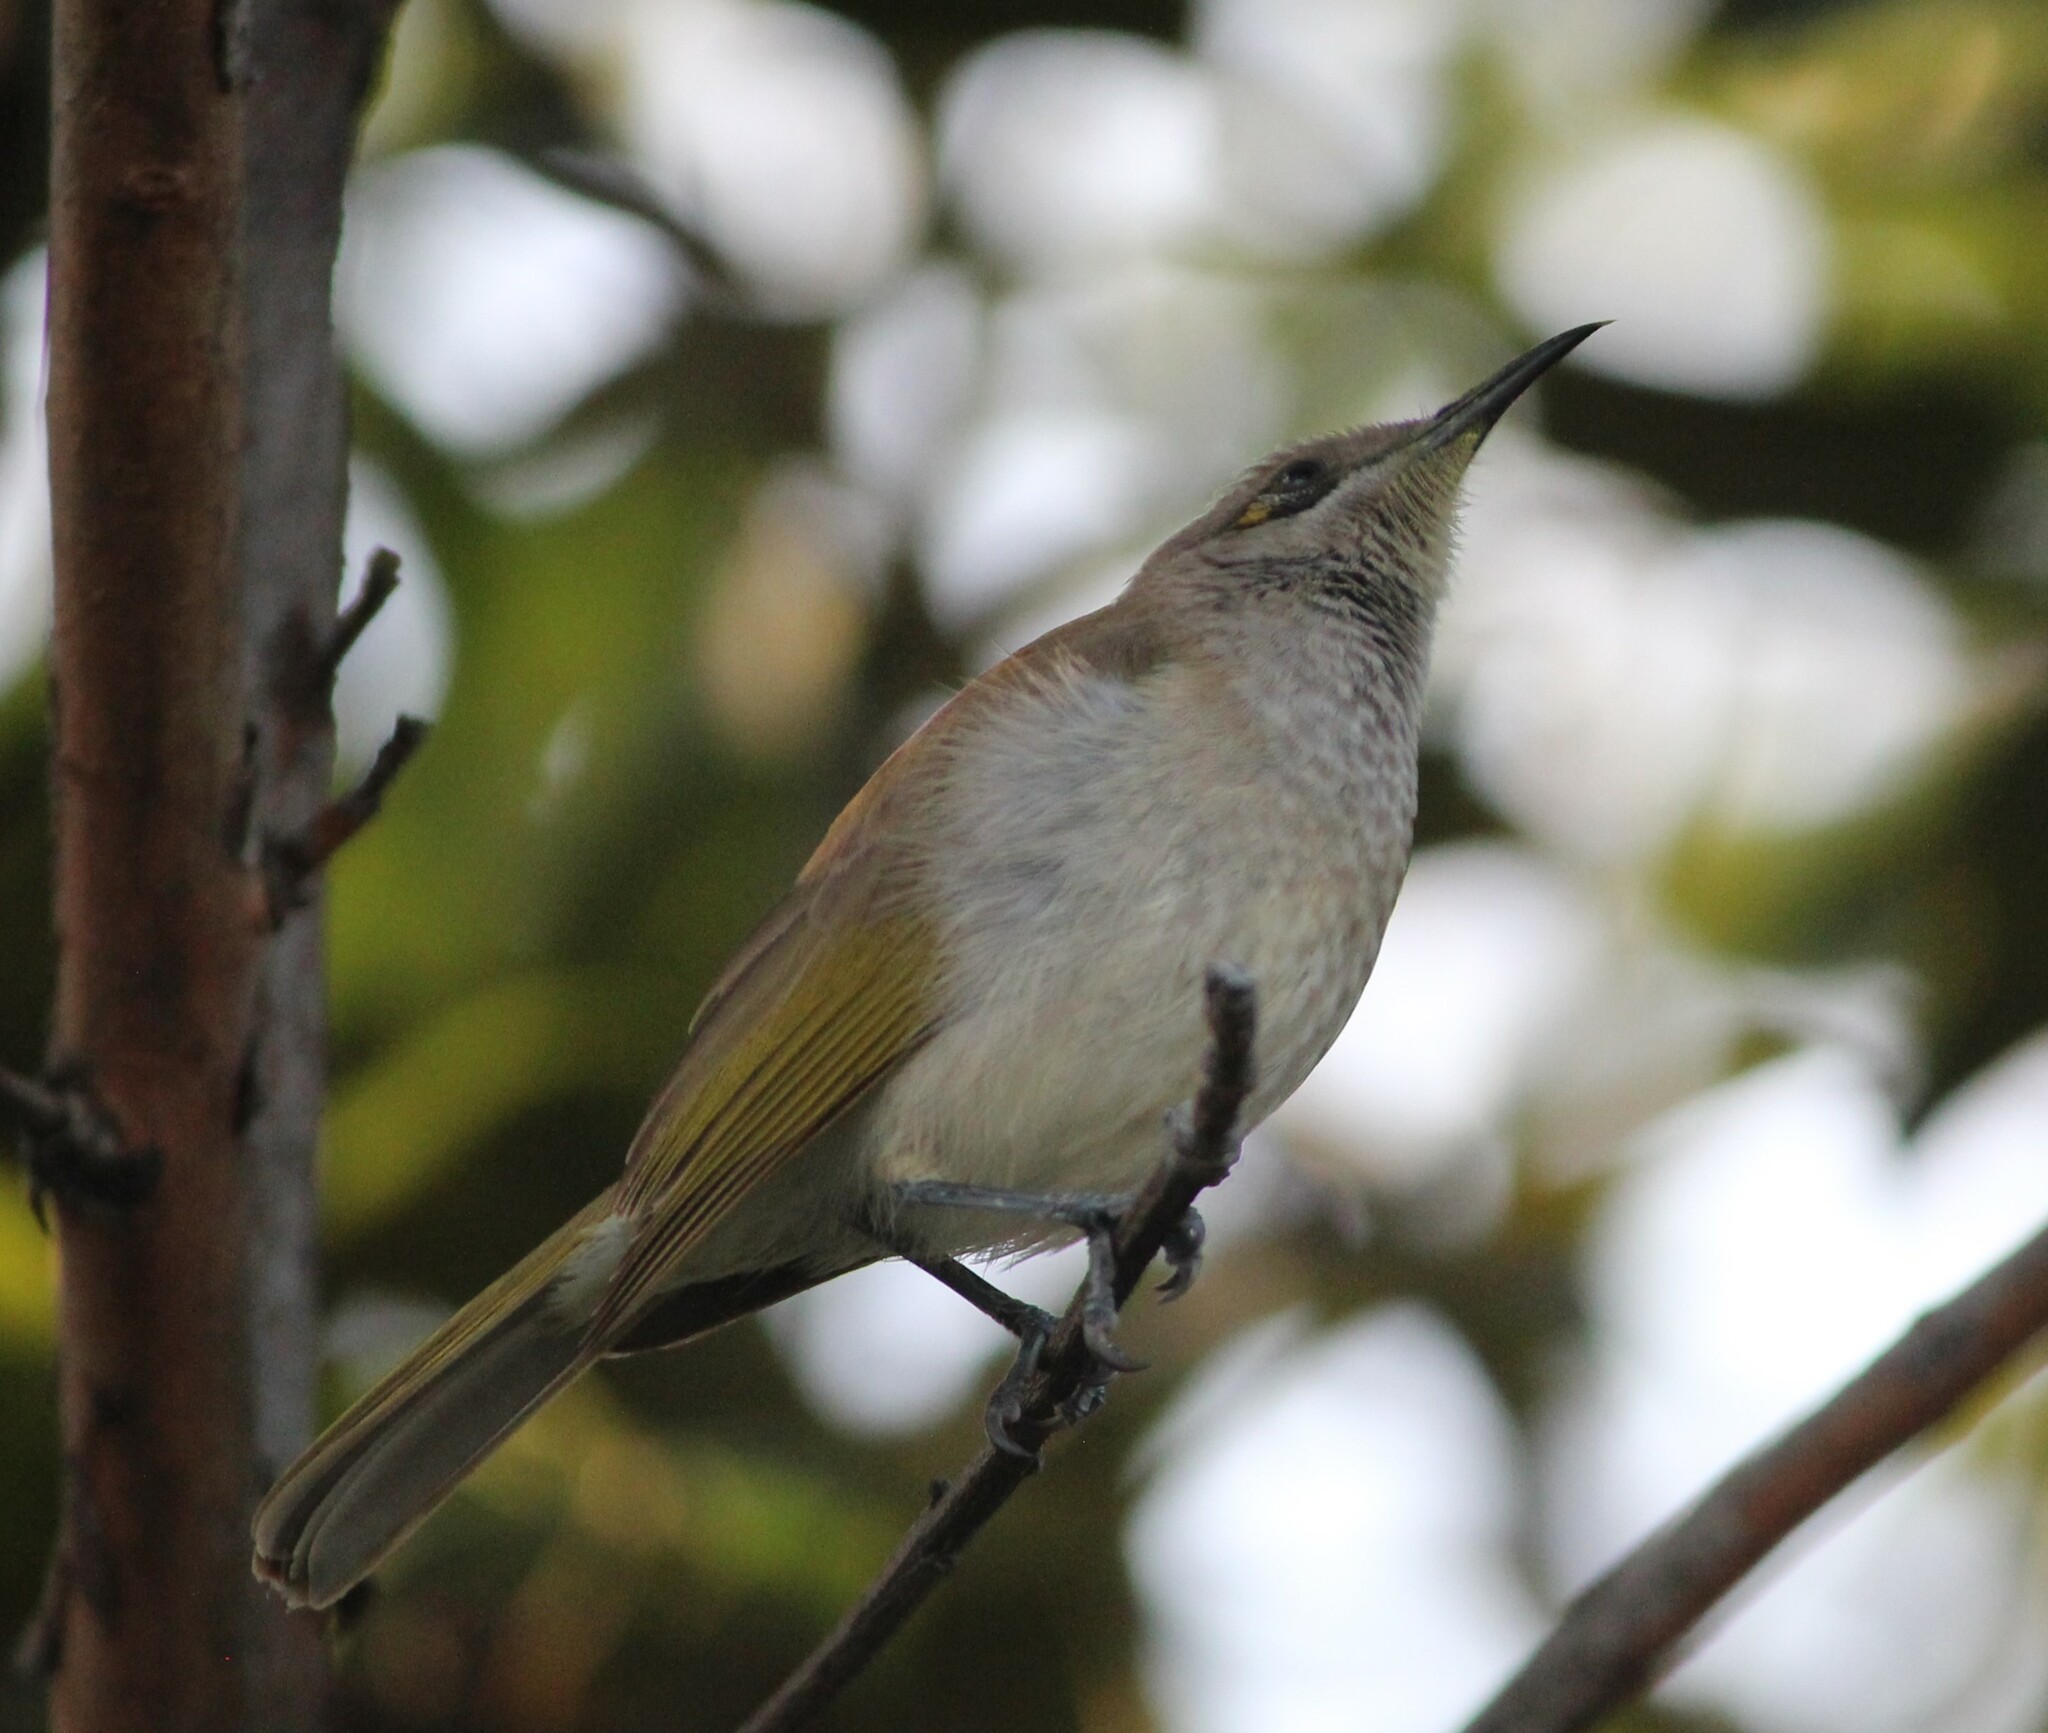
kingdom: Animalia
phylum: Chordata
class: Aves
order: Passeriformes
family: Meliphagidae
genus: Lichmera
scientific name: Lichmera indistincta
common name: Brown honeyeater
